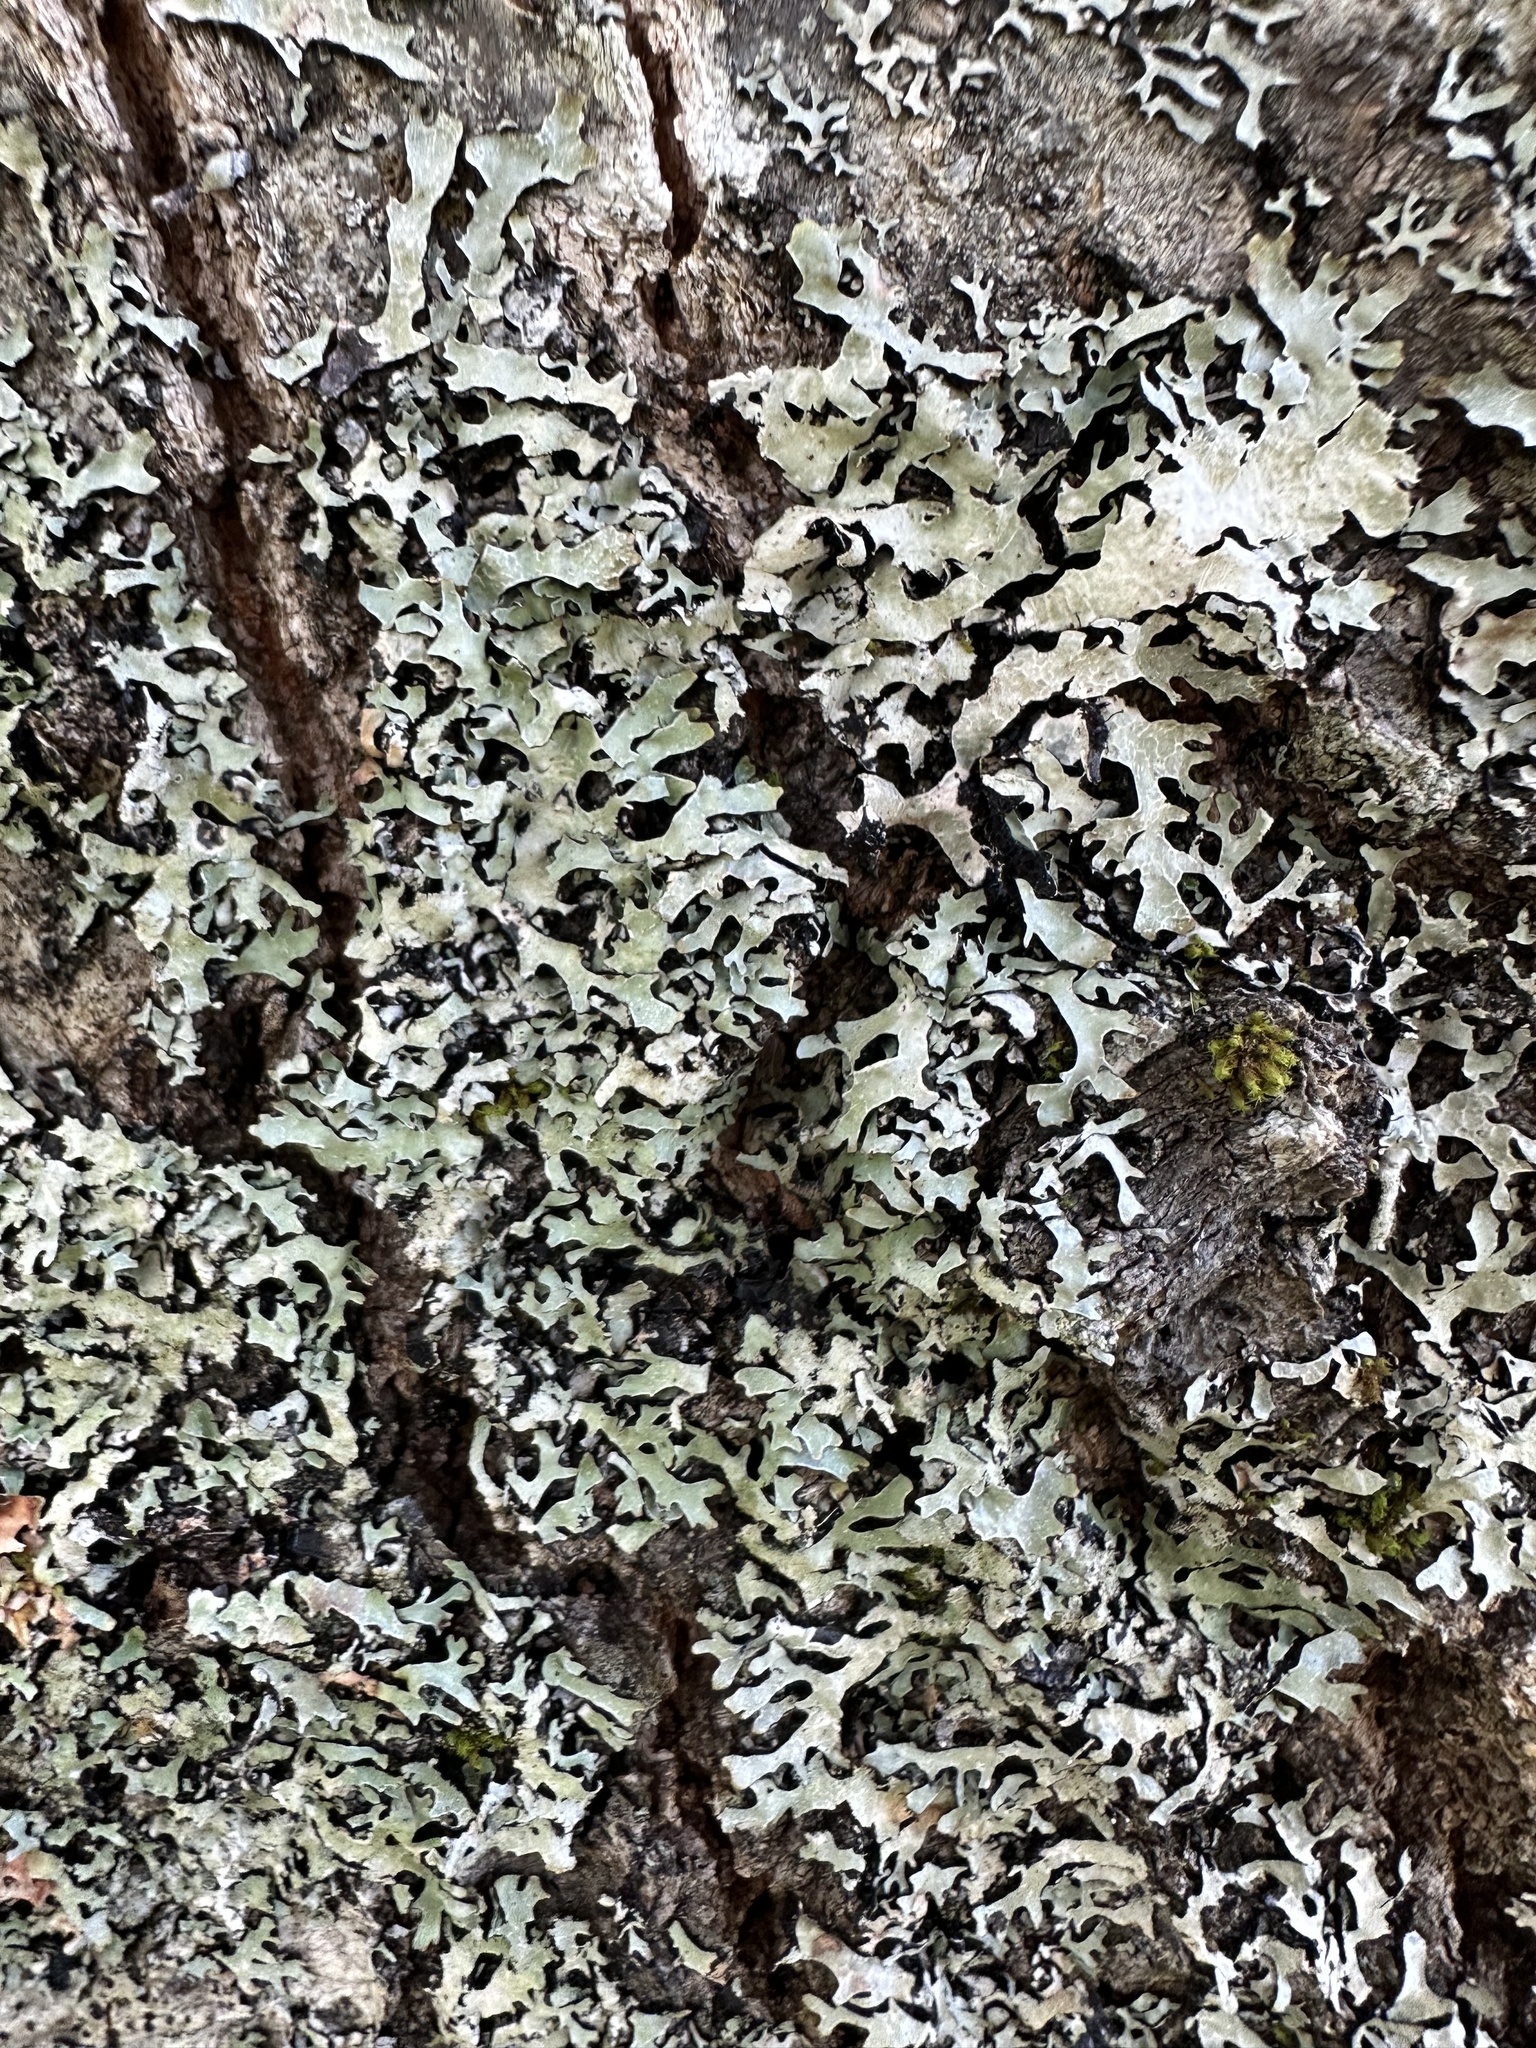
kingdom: Fungi
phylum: Ascomycota
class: Lecanoromycetes
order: Lecanorales
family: Parmeliaceae
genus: Parmelia
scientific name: Parmelia squarrosa
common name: Bottle brush shield lichen
